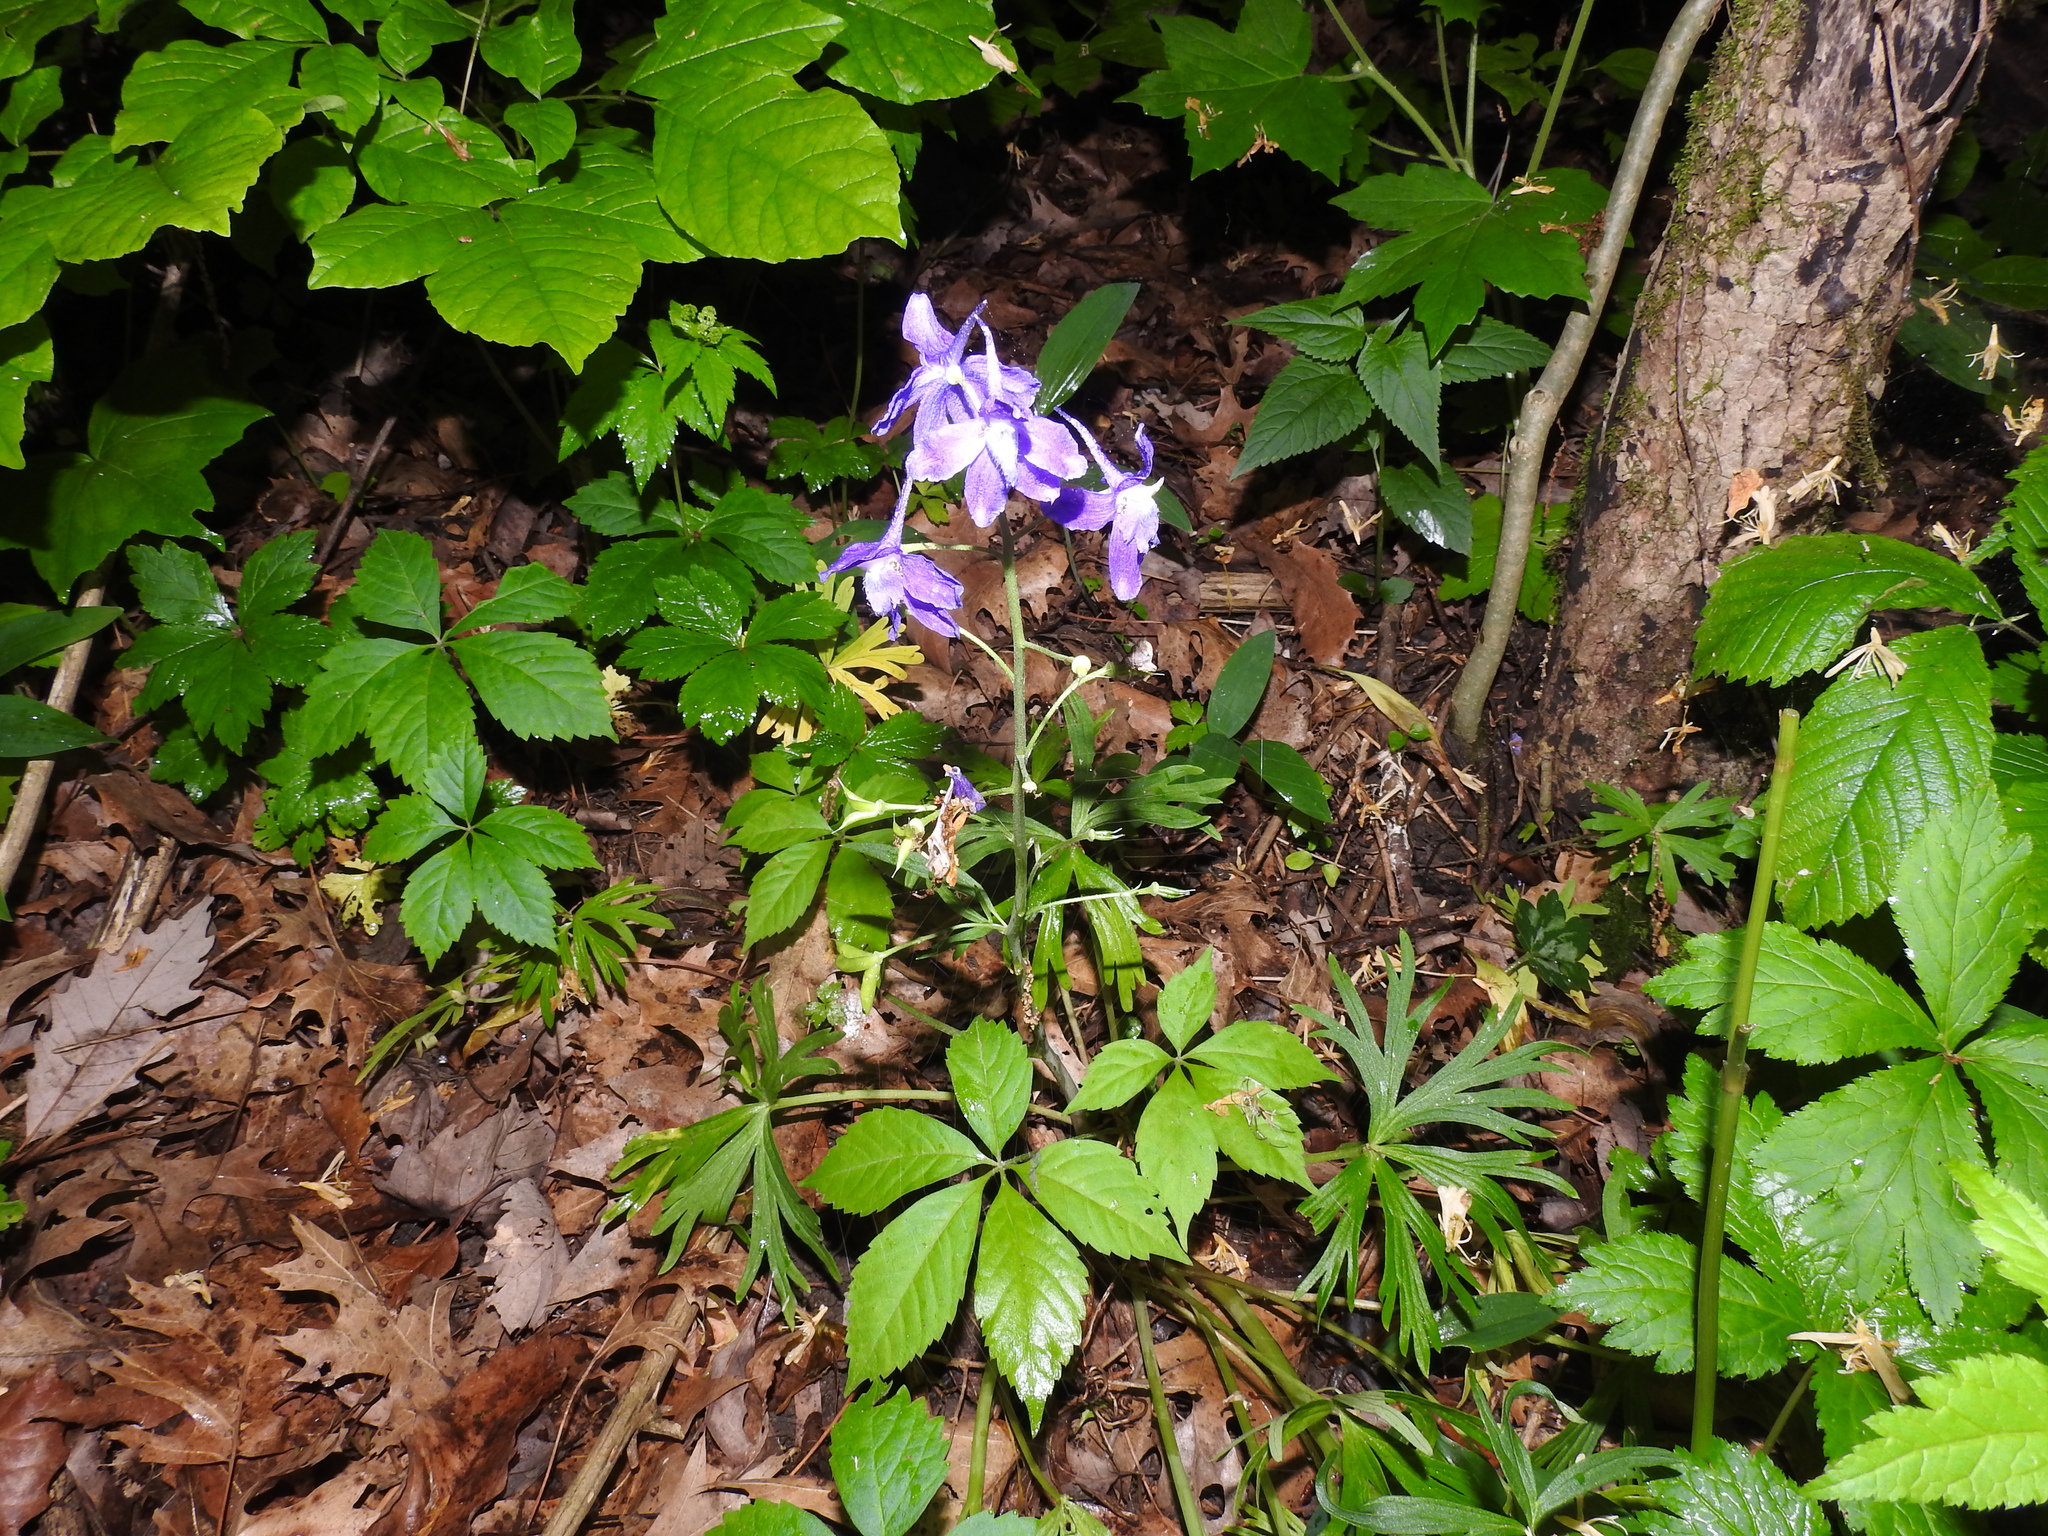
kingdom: Plantae
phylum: Tracheophyta
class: Magnoliopsida
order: Ranunculales
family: Ranunculaceae
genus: Delphinium
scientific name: Delphinium tricorne
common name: Dwarf larkspur
